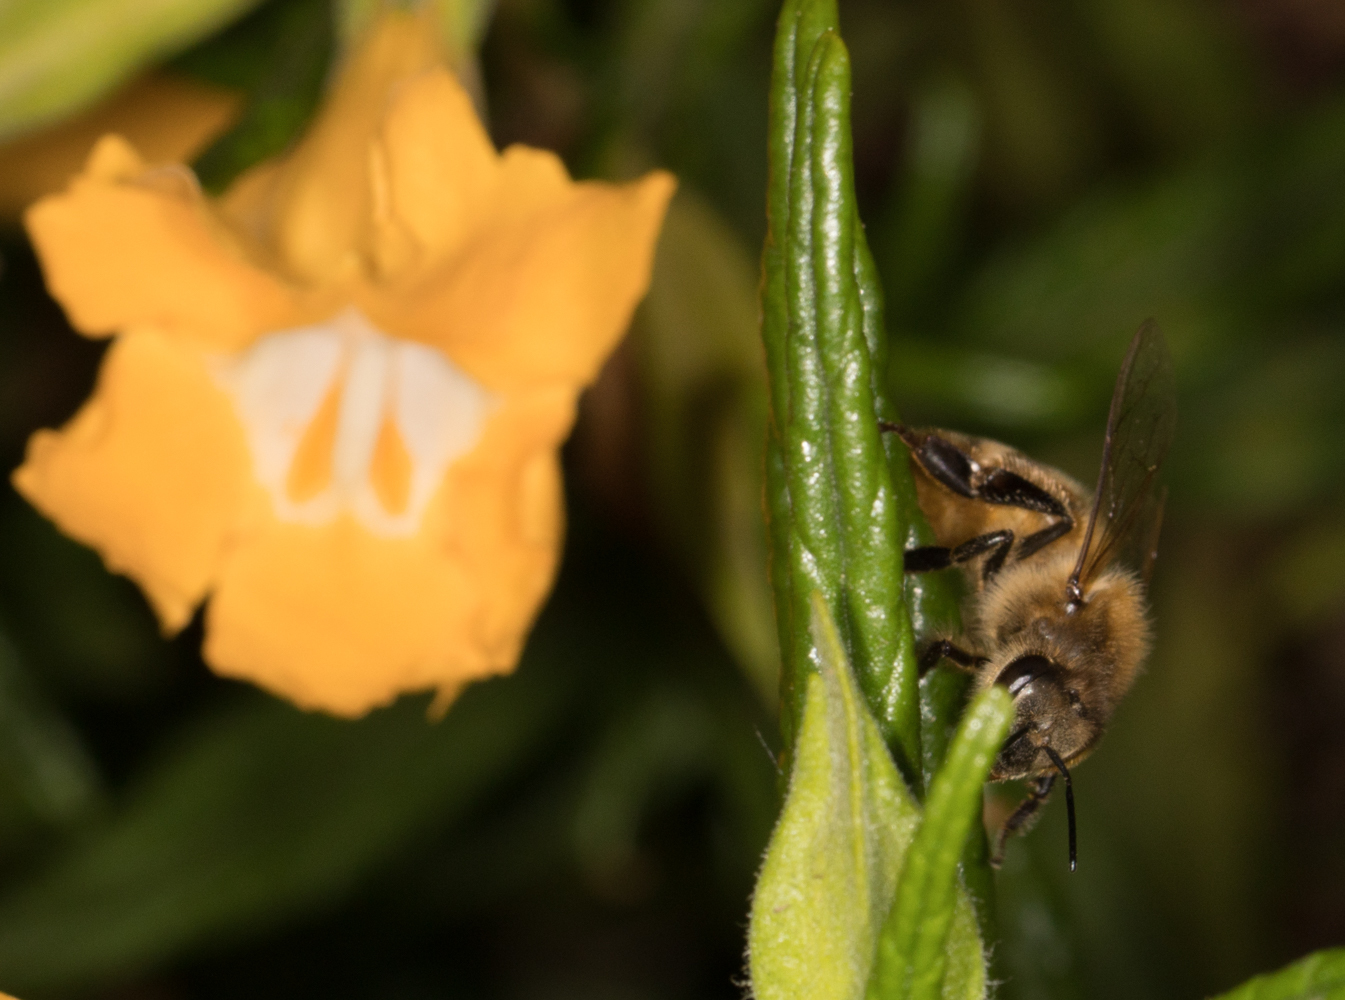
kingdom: Animalia
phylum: Arthropoda
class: Insecta
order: Hymenoptera
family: Apidae
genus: Apis
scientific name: Apis mellifera
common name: Honey bee
